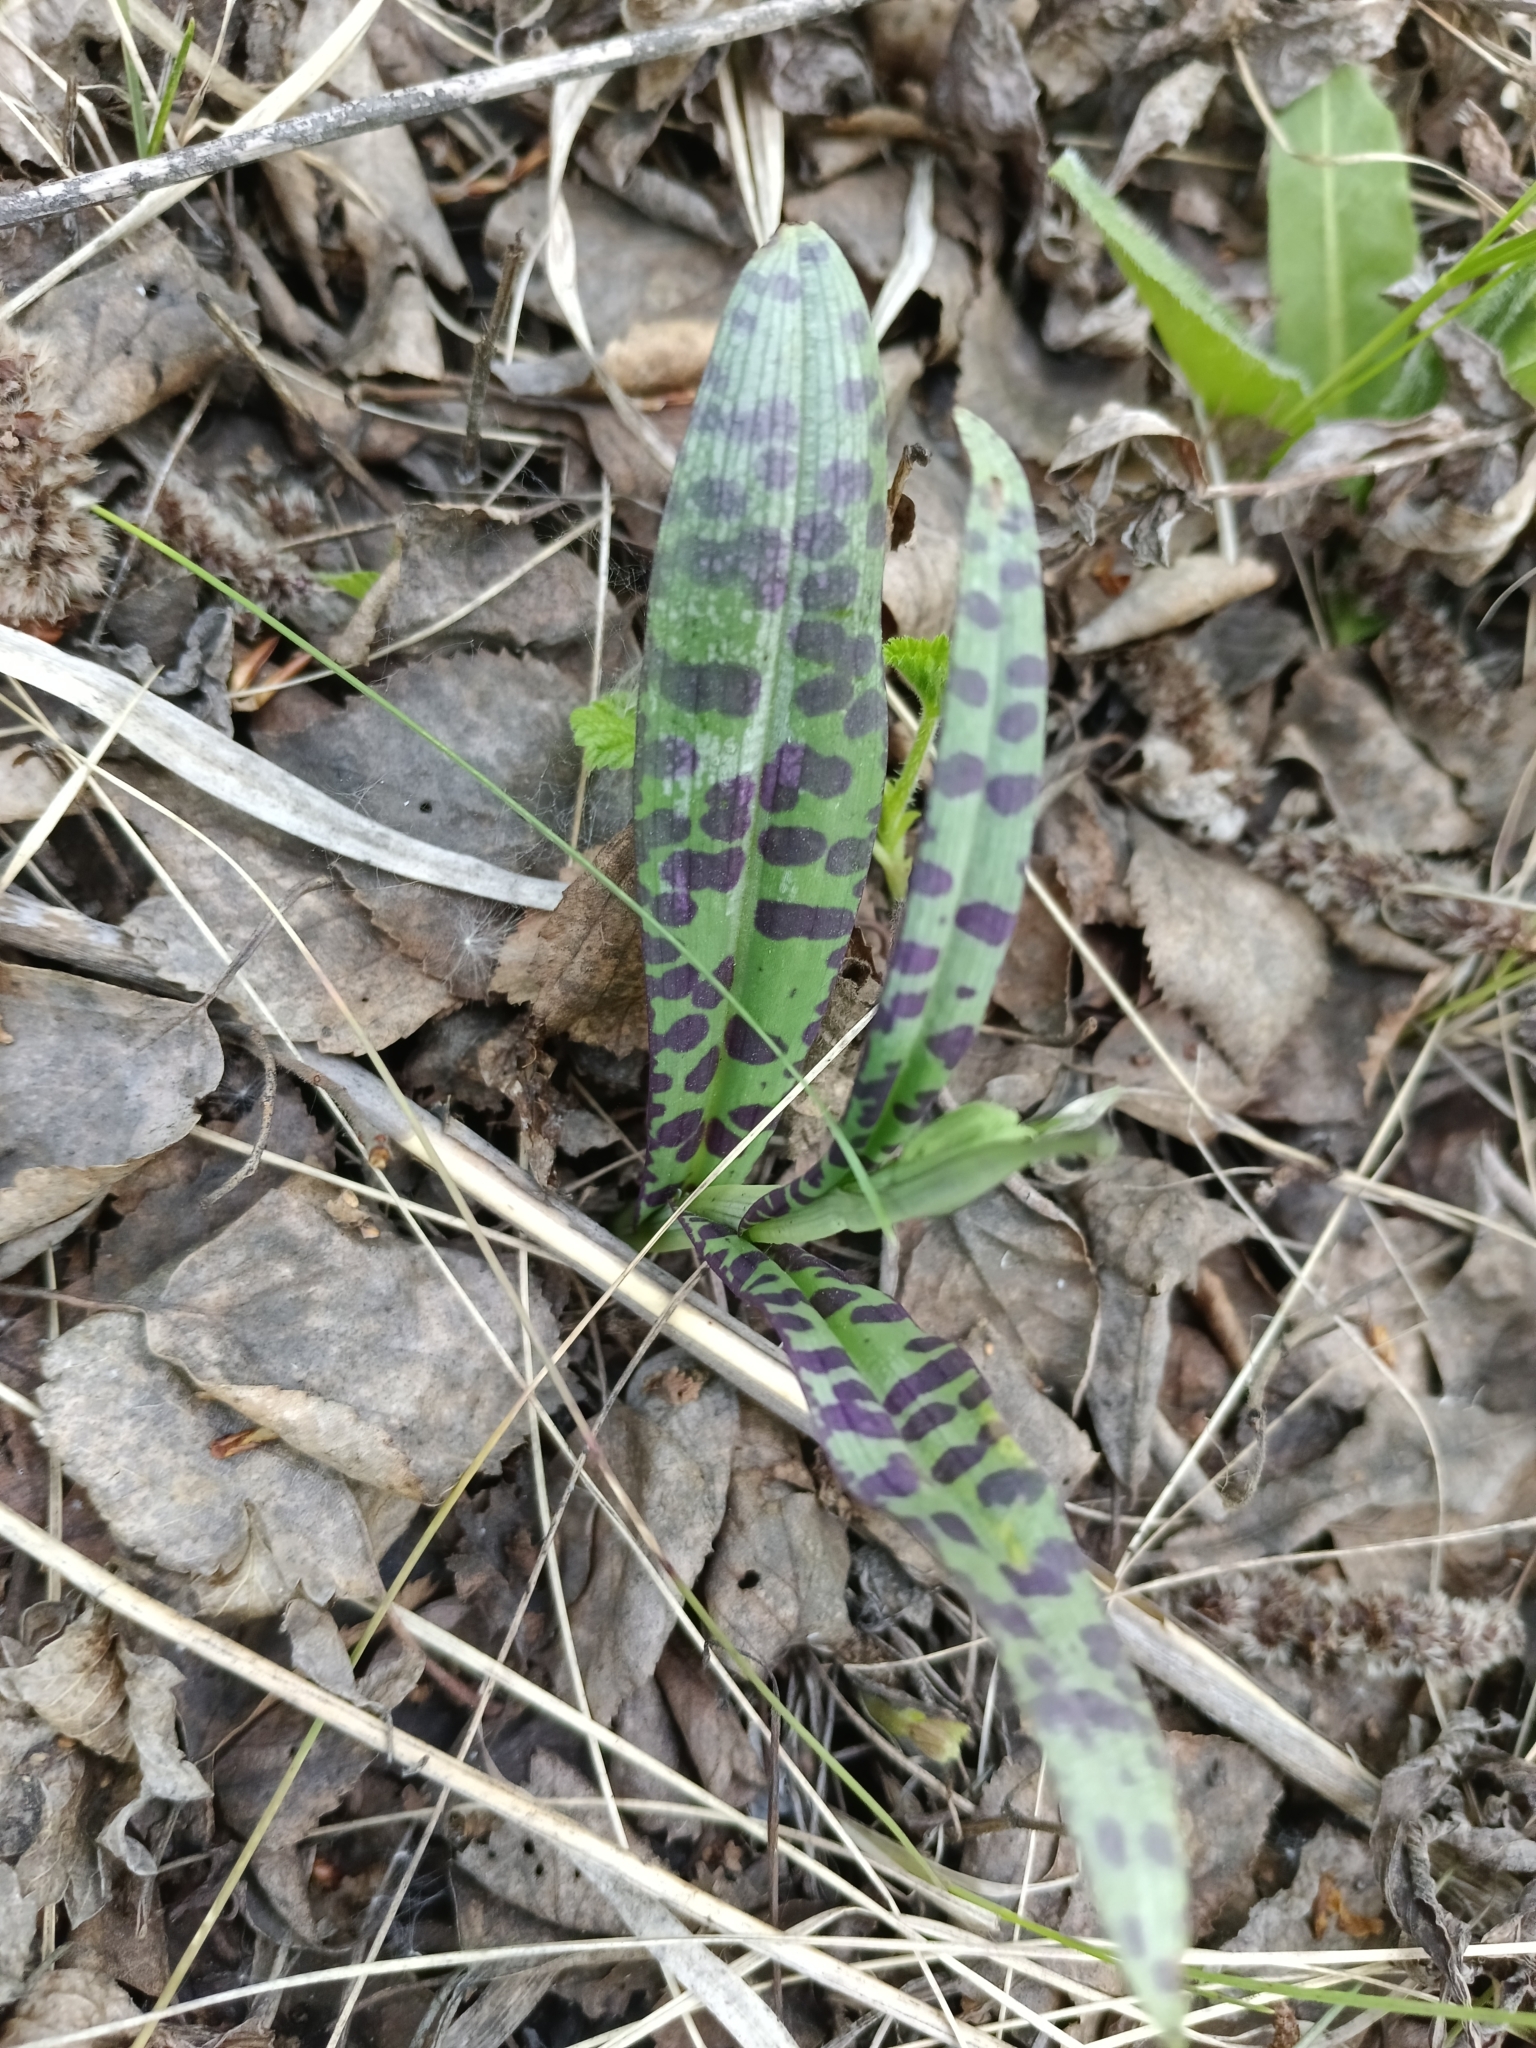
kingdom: Plantae
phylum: Tracheophyta
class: Liliopsida
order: Asparagales
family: Orchidaceae
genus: Dactylorhiza
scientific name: Dactylorhiza maculata
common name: Heath spotted-orchid
